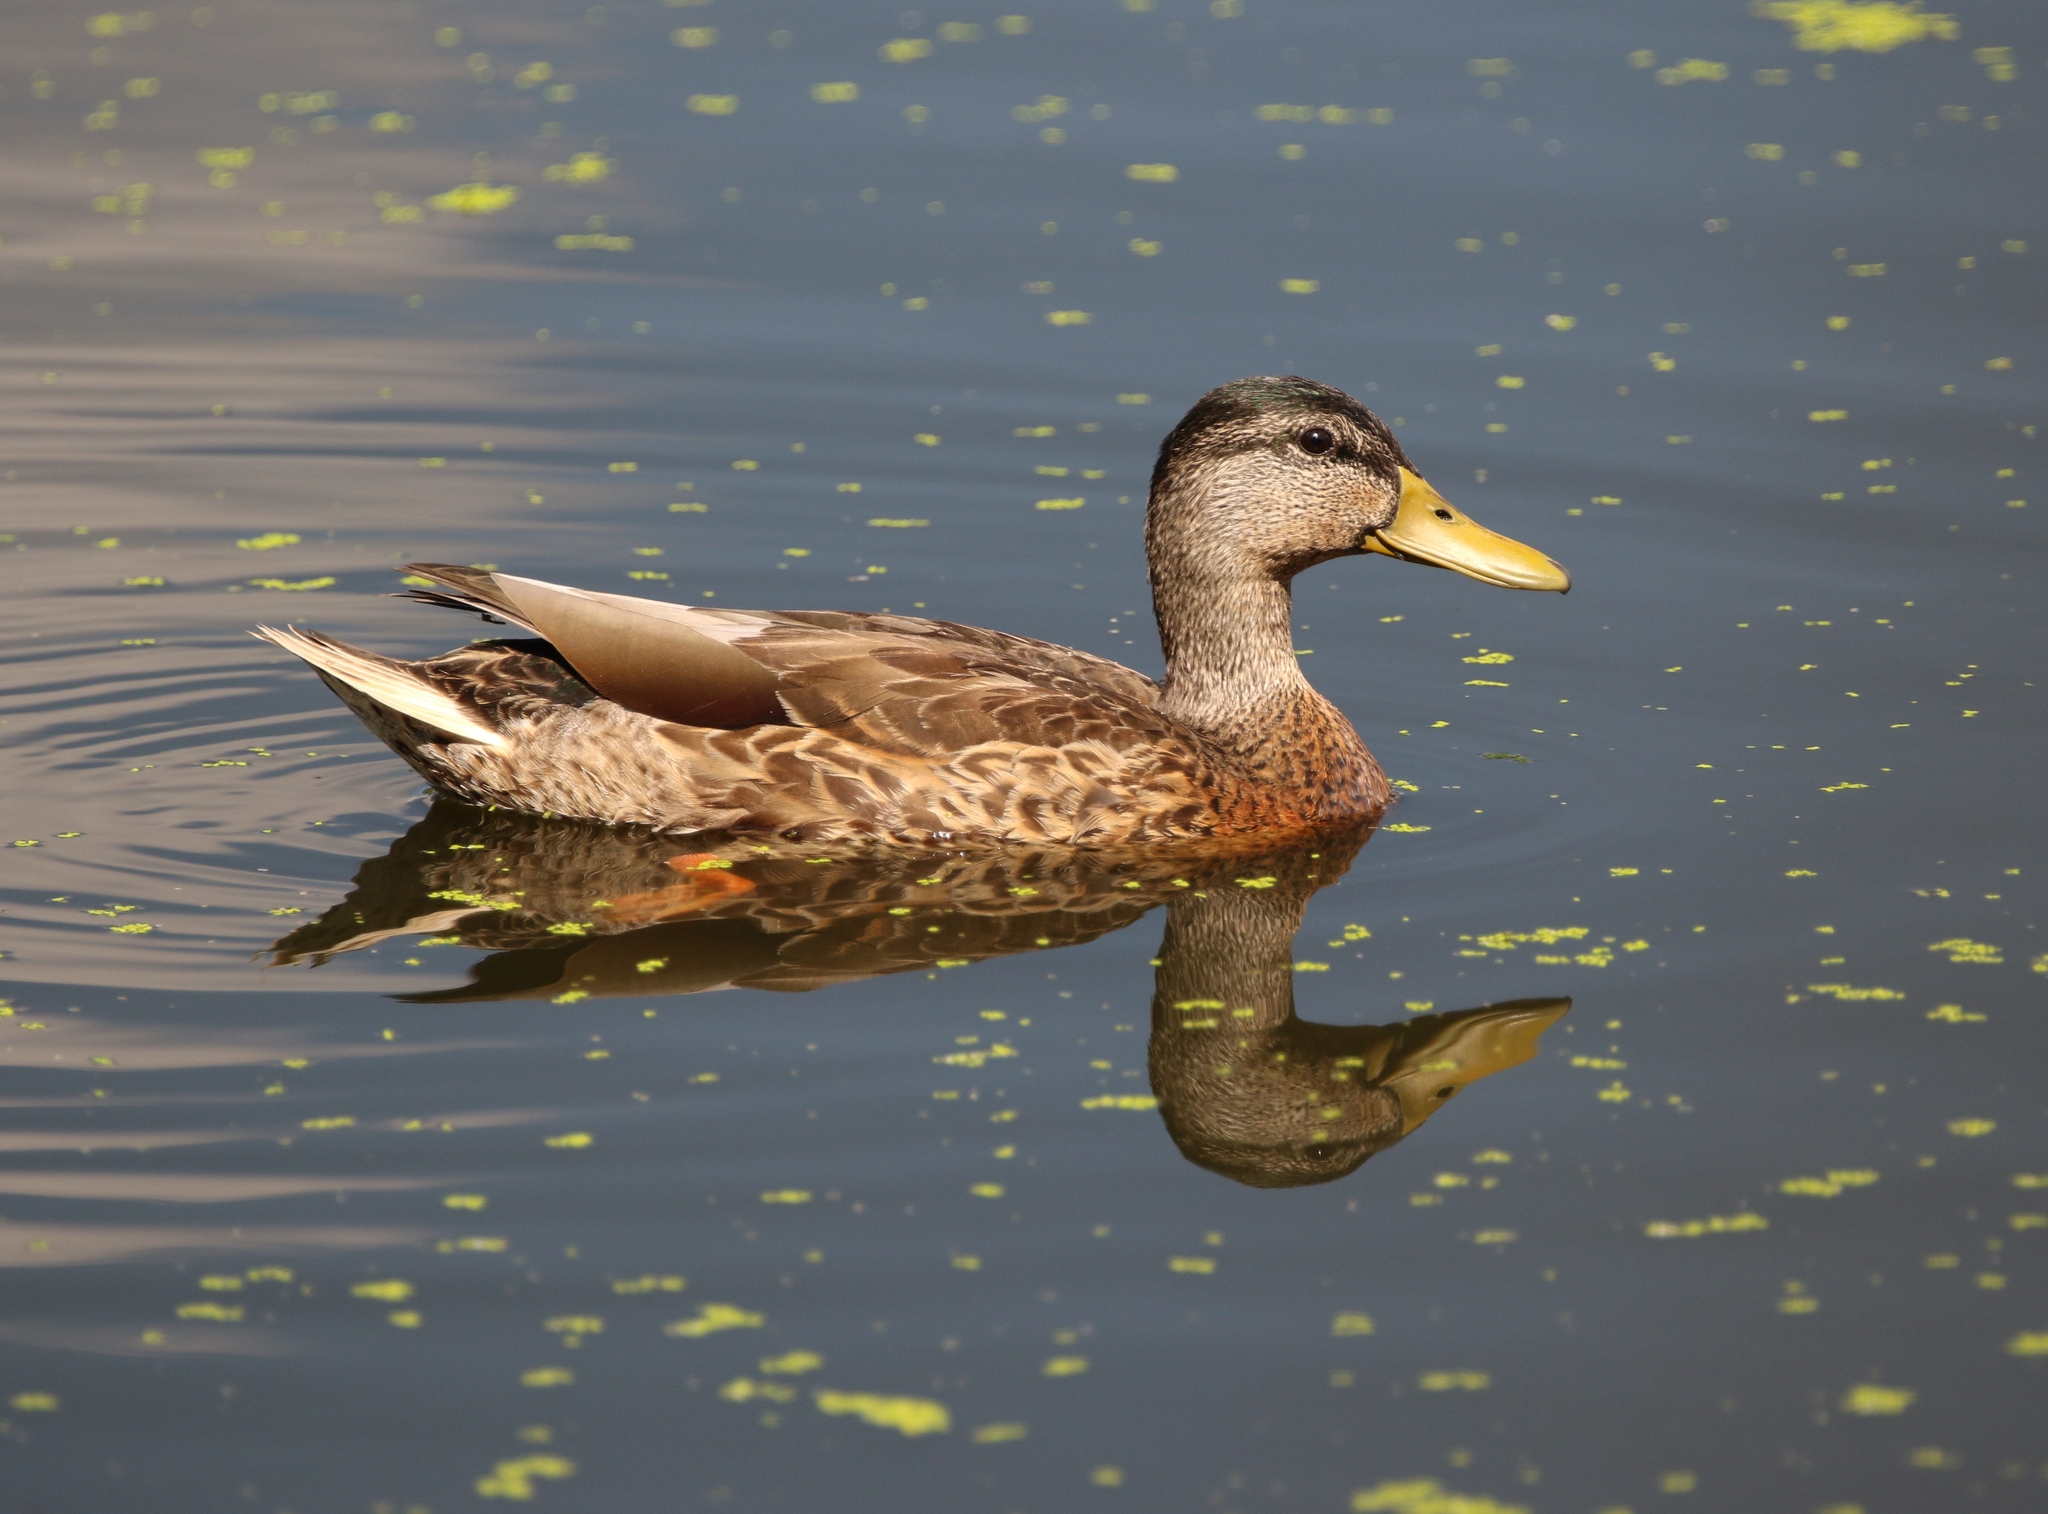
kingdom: Animalia
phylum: Chordata
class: Aves
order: Anseriformes
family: Anatidae
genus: Anas
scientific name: Anas platyrhynchos
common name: Mallard
